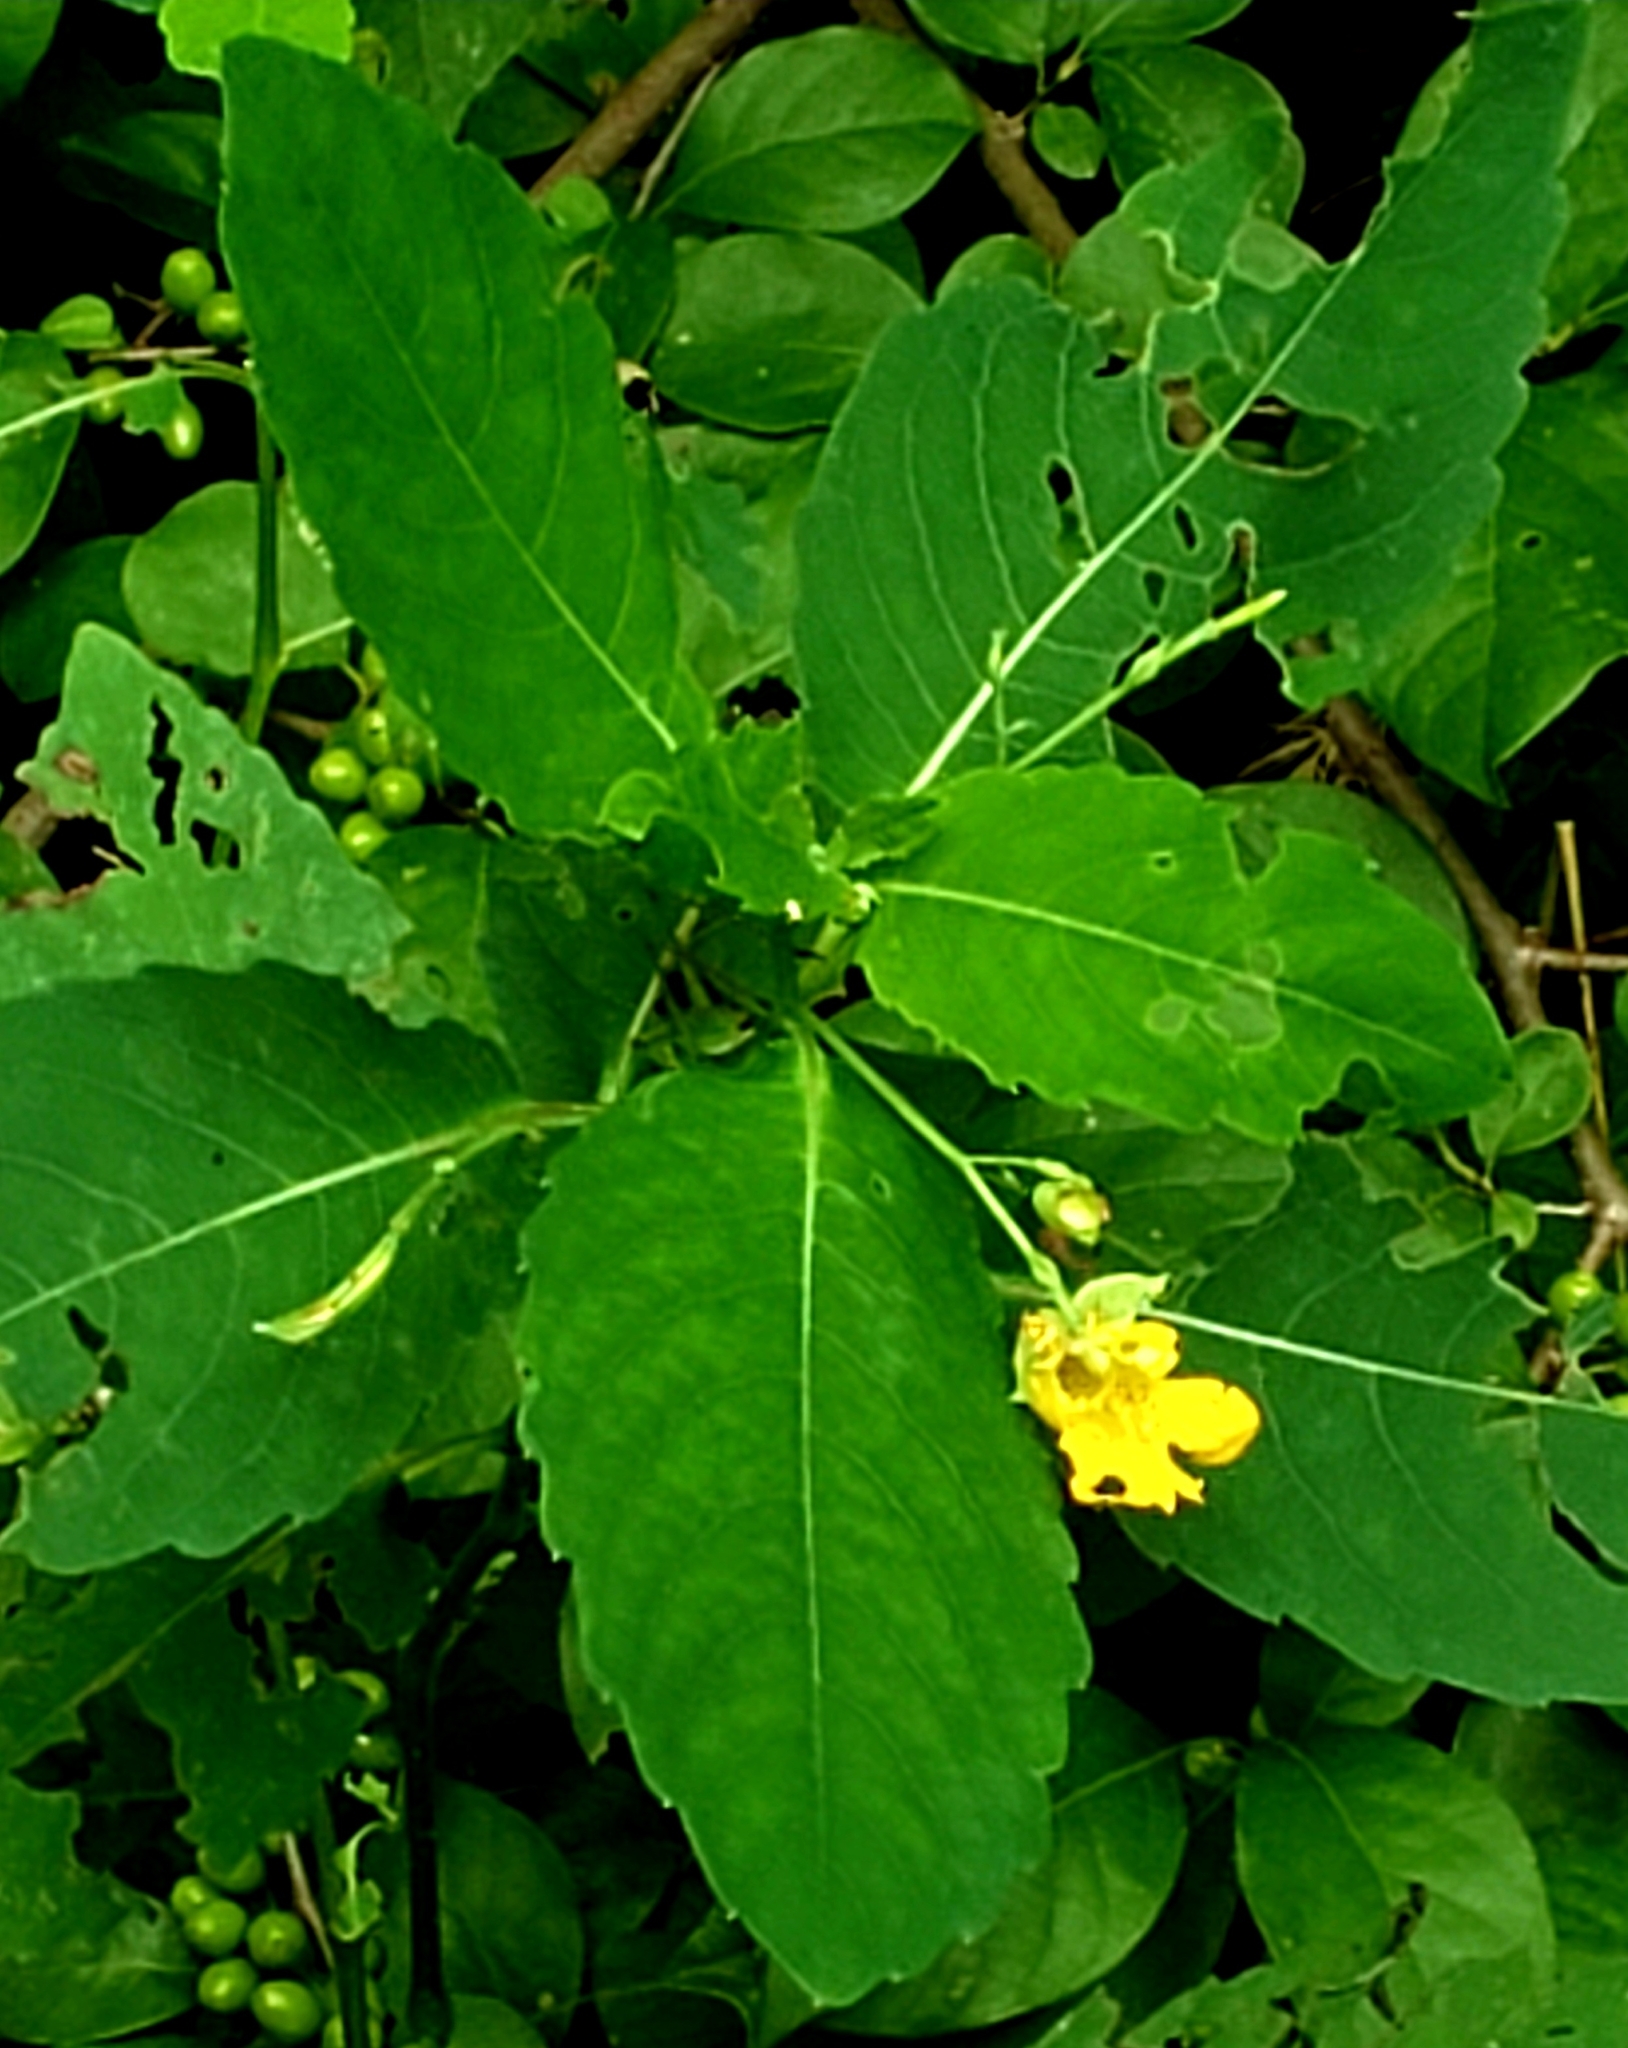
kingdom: Plantae
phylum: Tracheophyta
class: Magnoliopsida
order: Ericales
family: Balsaminaceae
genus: Impatiens
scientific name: Impatiens pallida
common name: Pale snapweed
